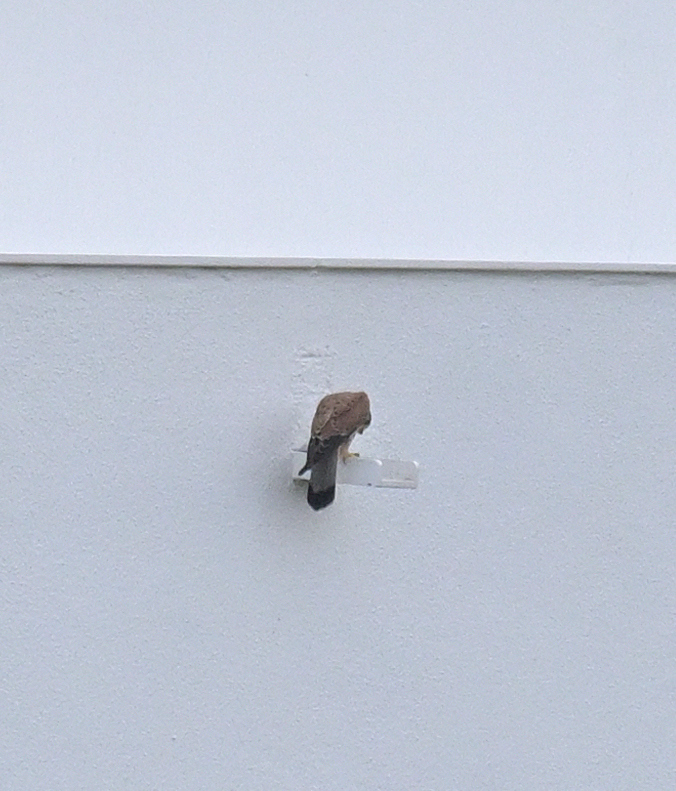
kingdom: Animalia
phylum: Chordata
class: Aves
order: Falconiformes
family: Falconidae
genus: Falco
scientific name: Falco tinnunculus
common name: Common kestrel
